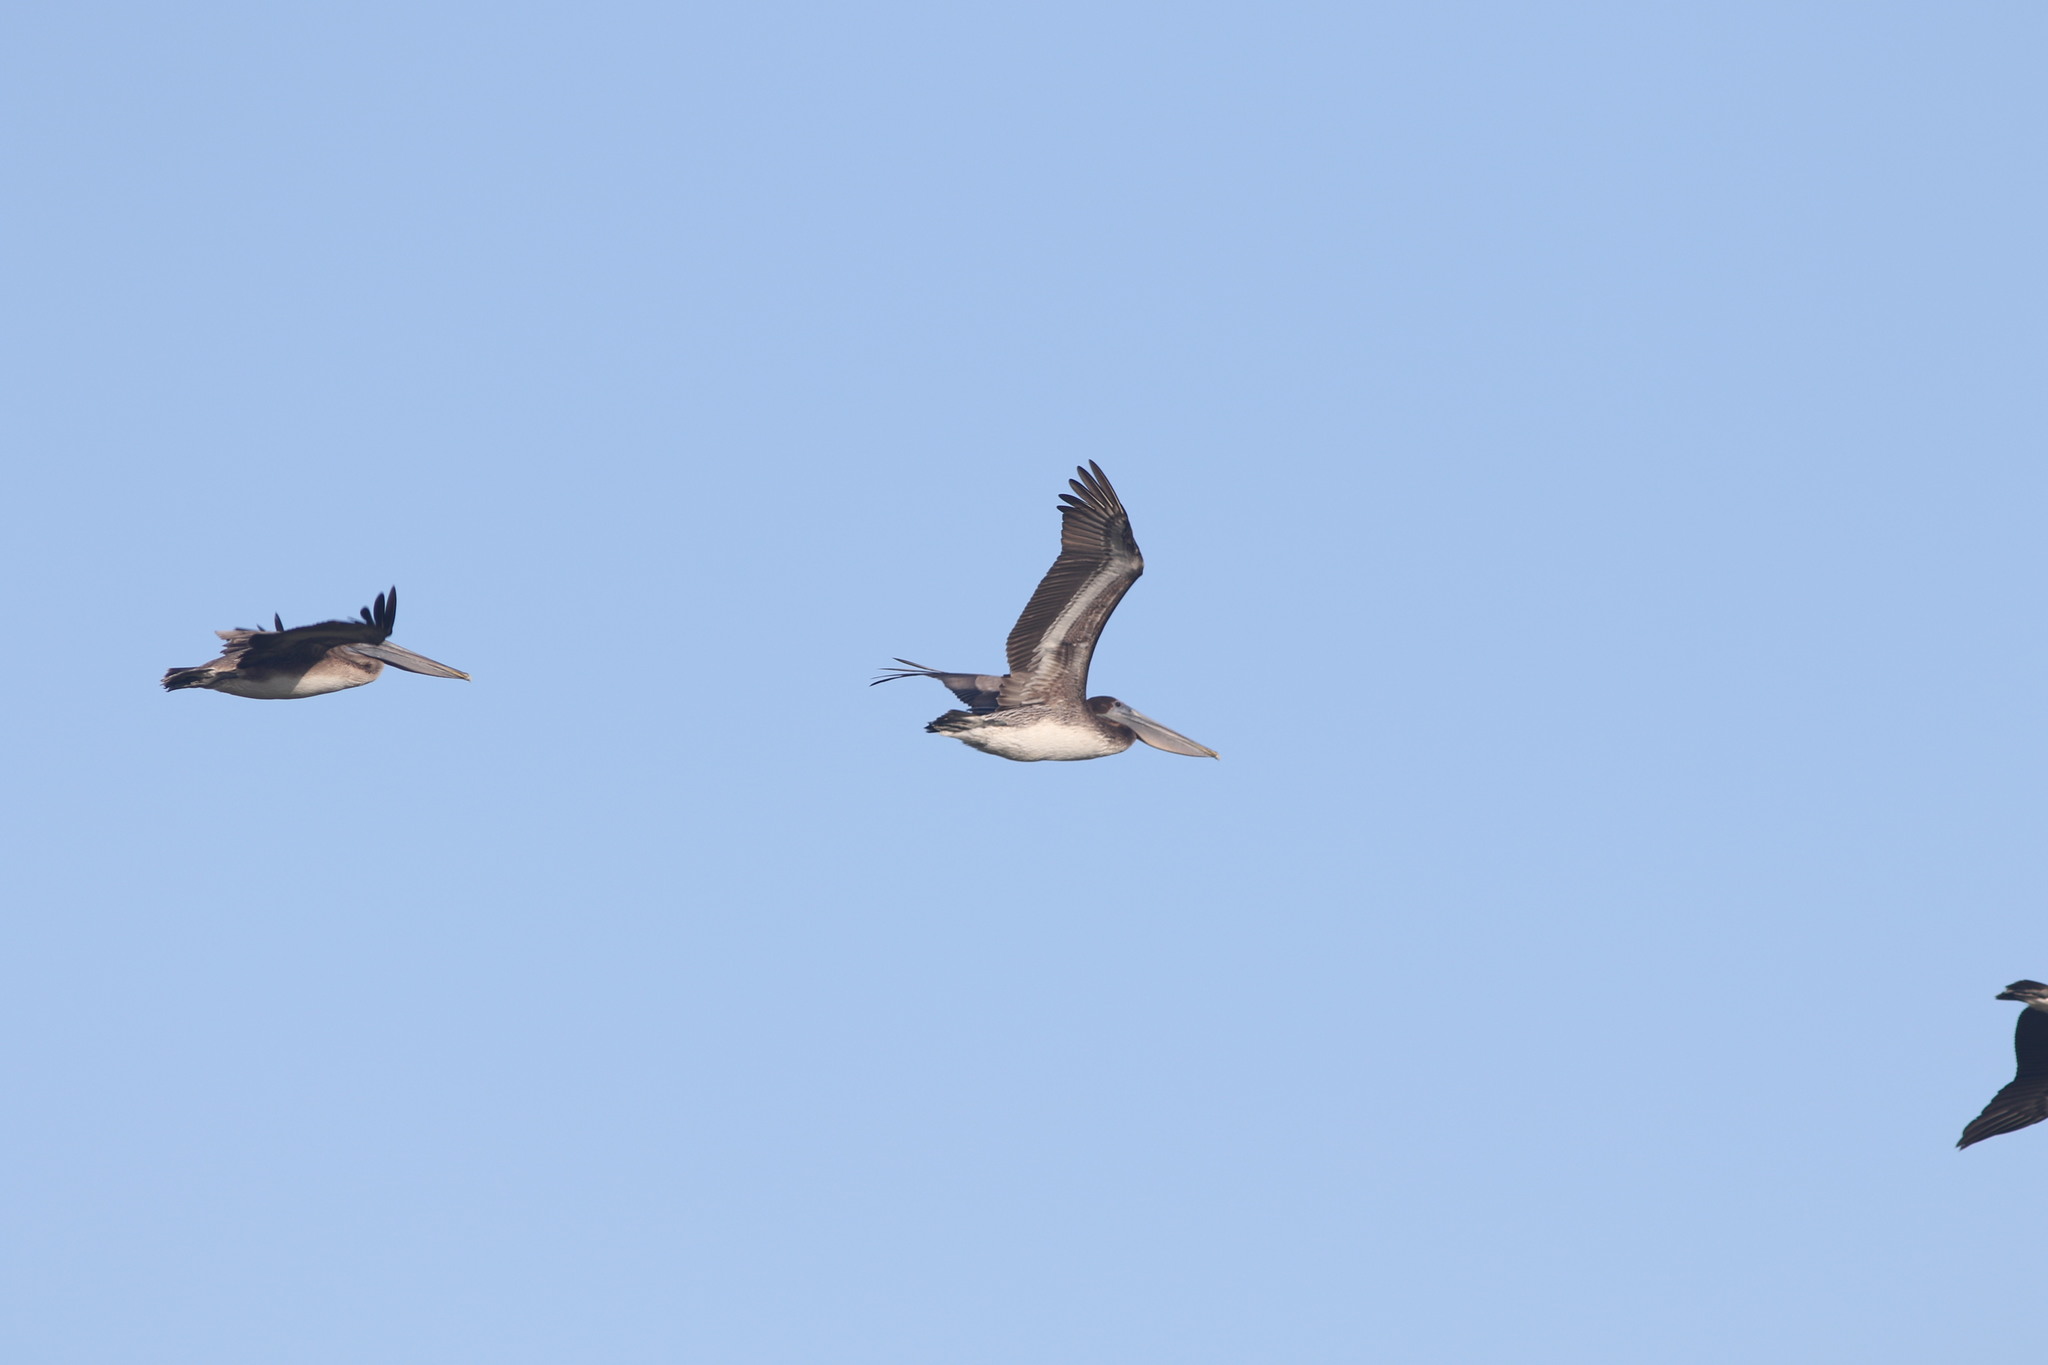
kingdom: Animalia
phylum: Chordata
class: Aves
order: Pelecaniformes
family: Pelecanidae
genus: Pelecanus
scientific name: Pelecanus occidentalis
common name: Brown pelican
